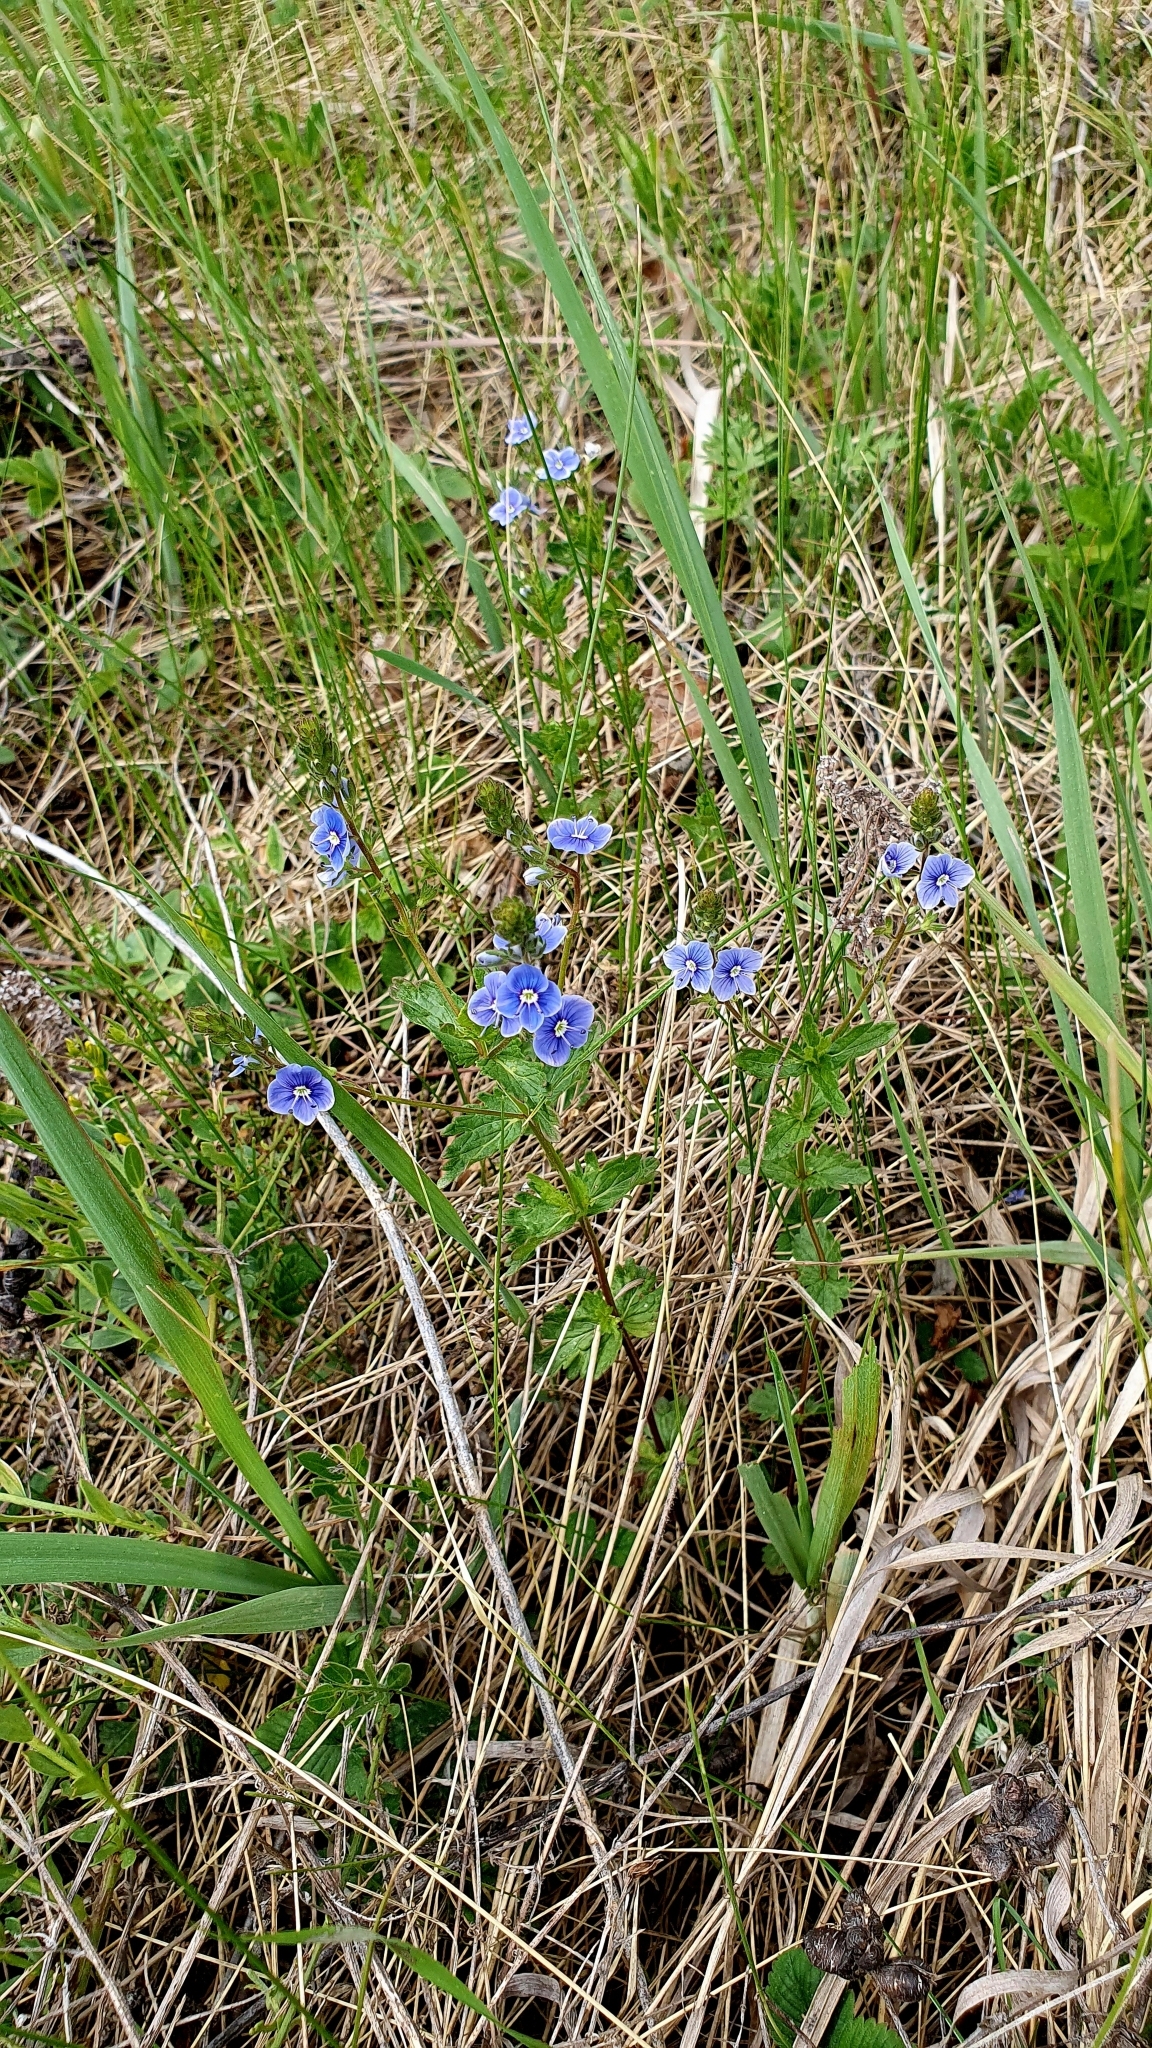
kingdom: Plantae
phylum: Tracheophyta
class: Magnoliopsida
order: Lamiales
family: Plantaginaceae
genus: Veronica
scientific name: Veronica chamaedrys
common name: Germander speedwell
